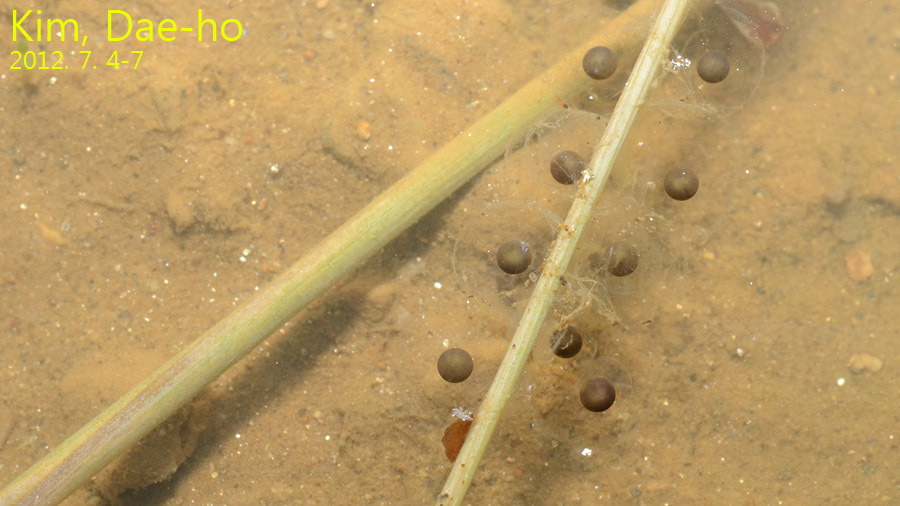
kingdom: Animalia
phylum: Chordata
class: Amphibia
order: Anura
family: Bombinatoridae
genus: Bombina
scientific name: Bombina orientalis
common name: Oriental firebelly toad
